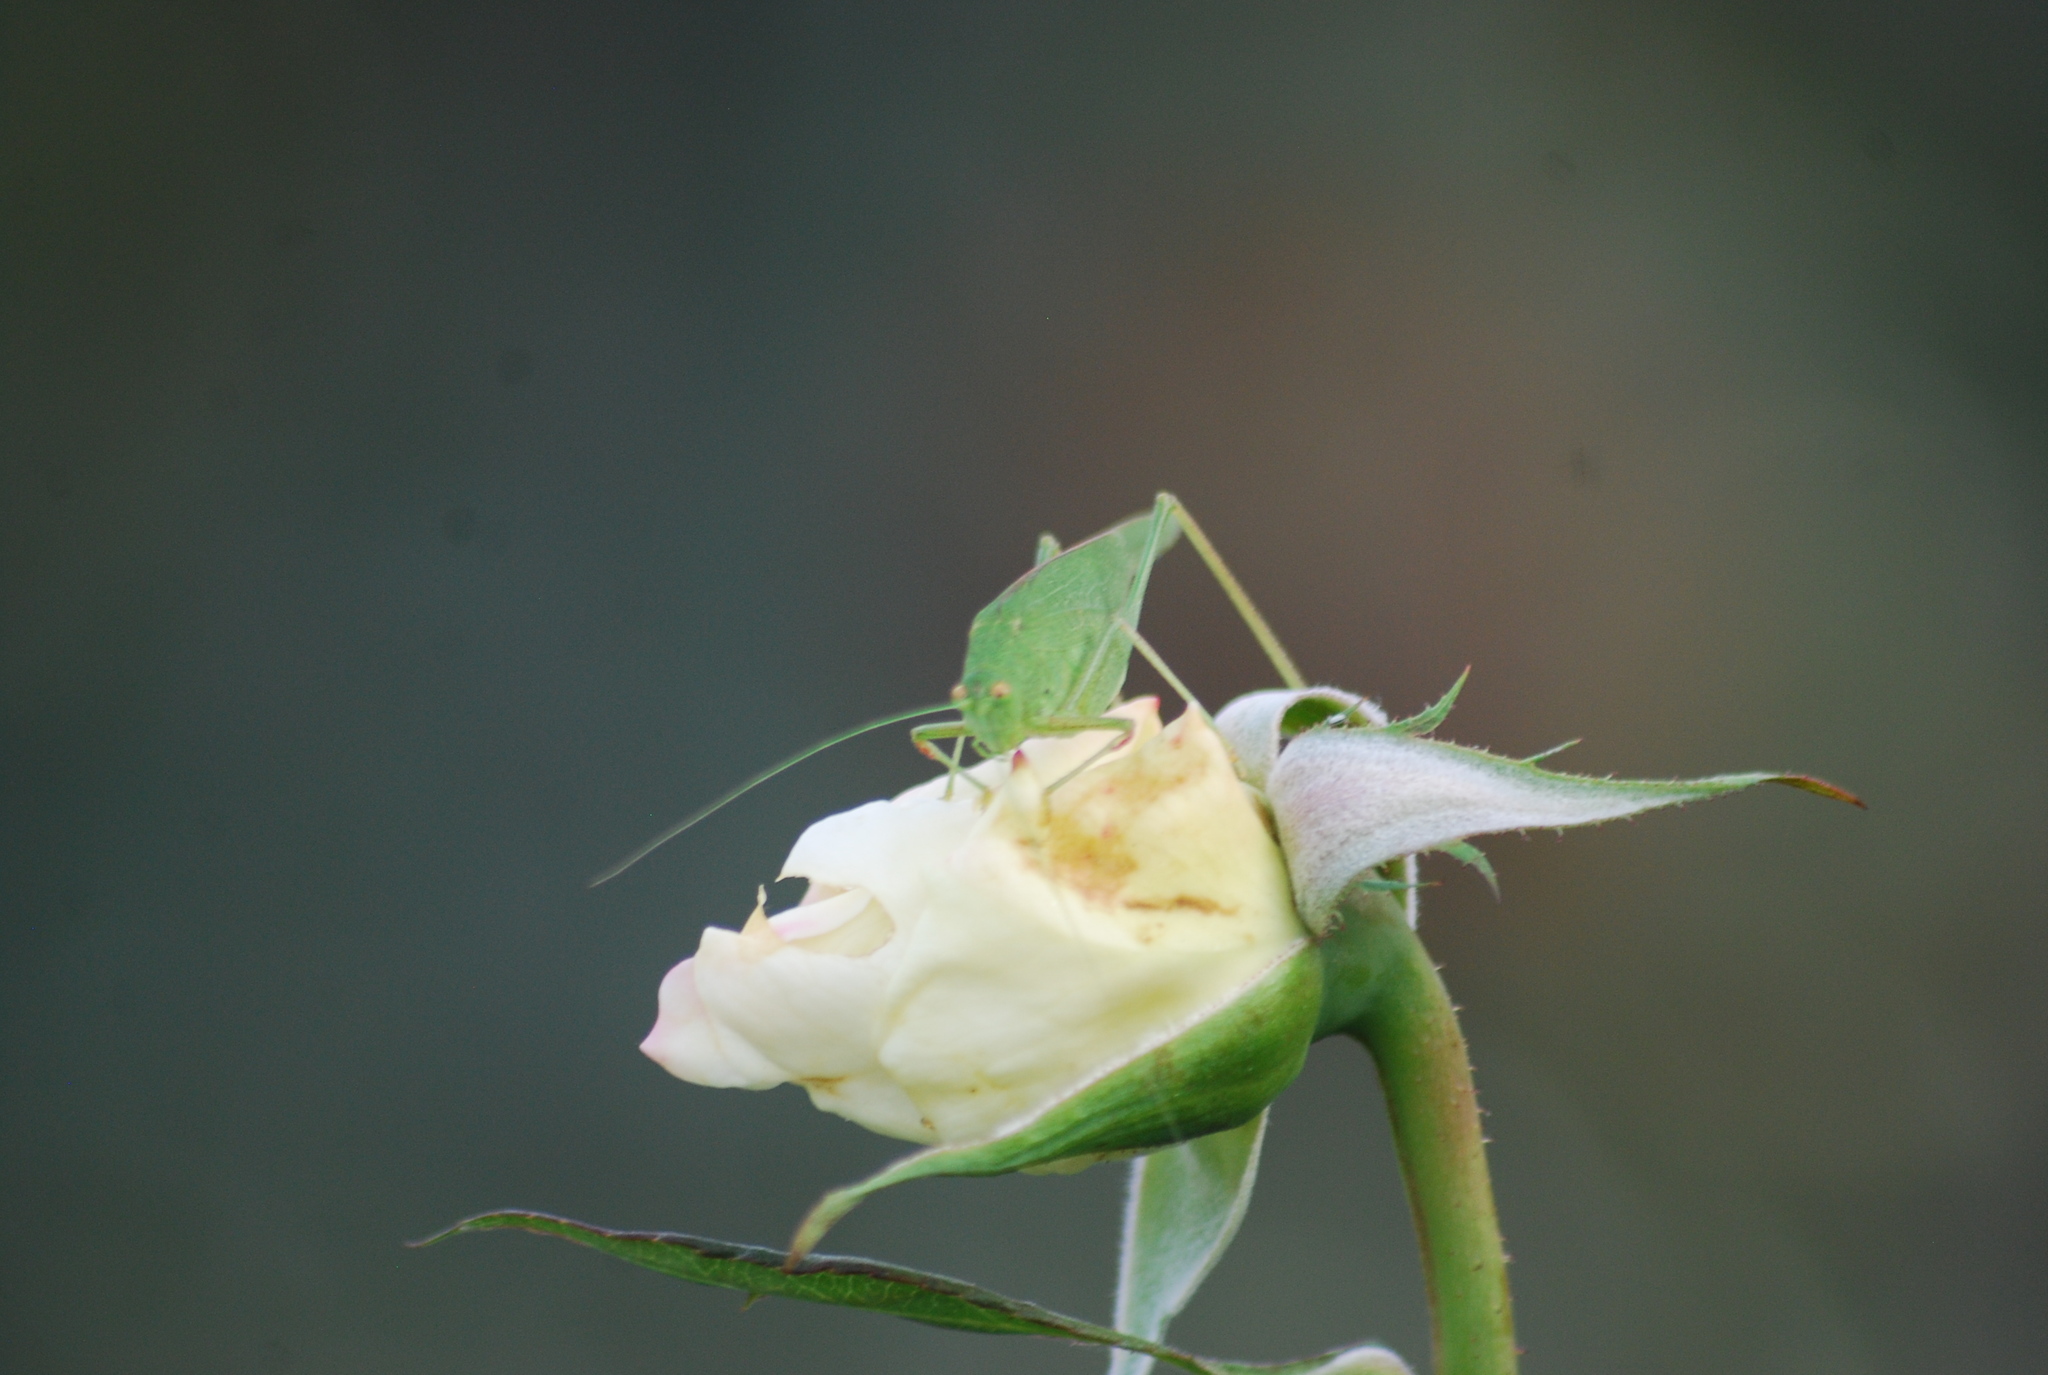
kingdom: Animalia
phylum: Arthropoda
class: Insecta
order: Orthoptera
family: Tettigoniidae
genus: Phaneroptera
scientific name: Phaneroptera nana
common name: Southern sickle bush-cricket
